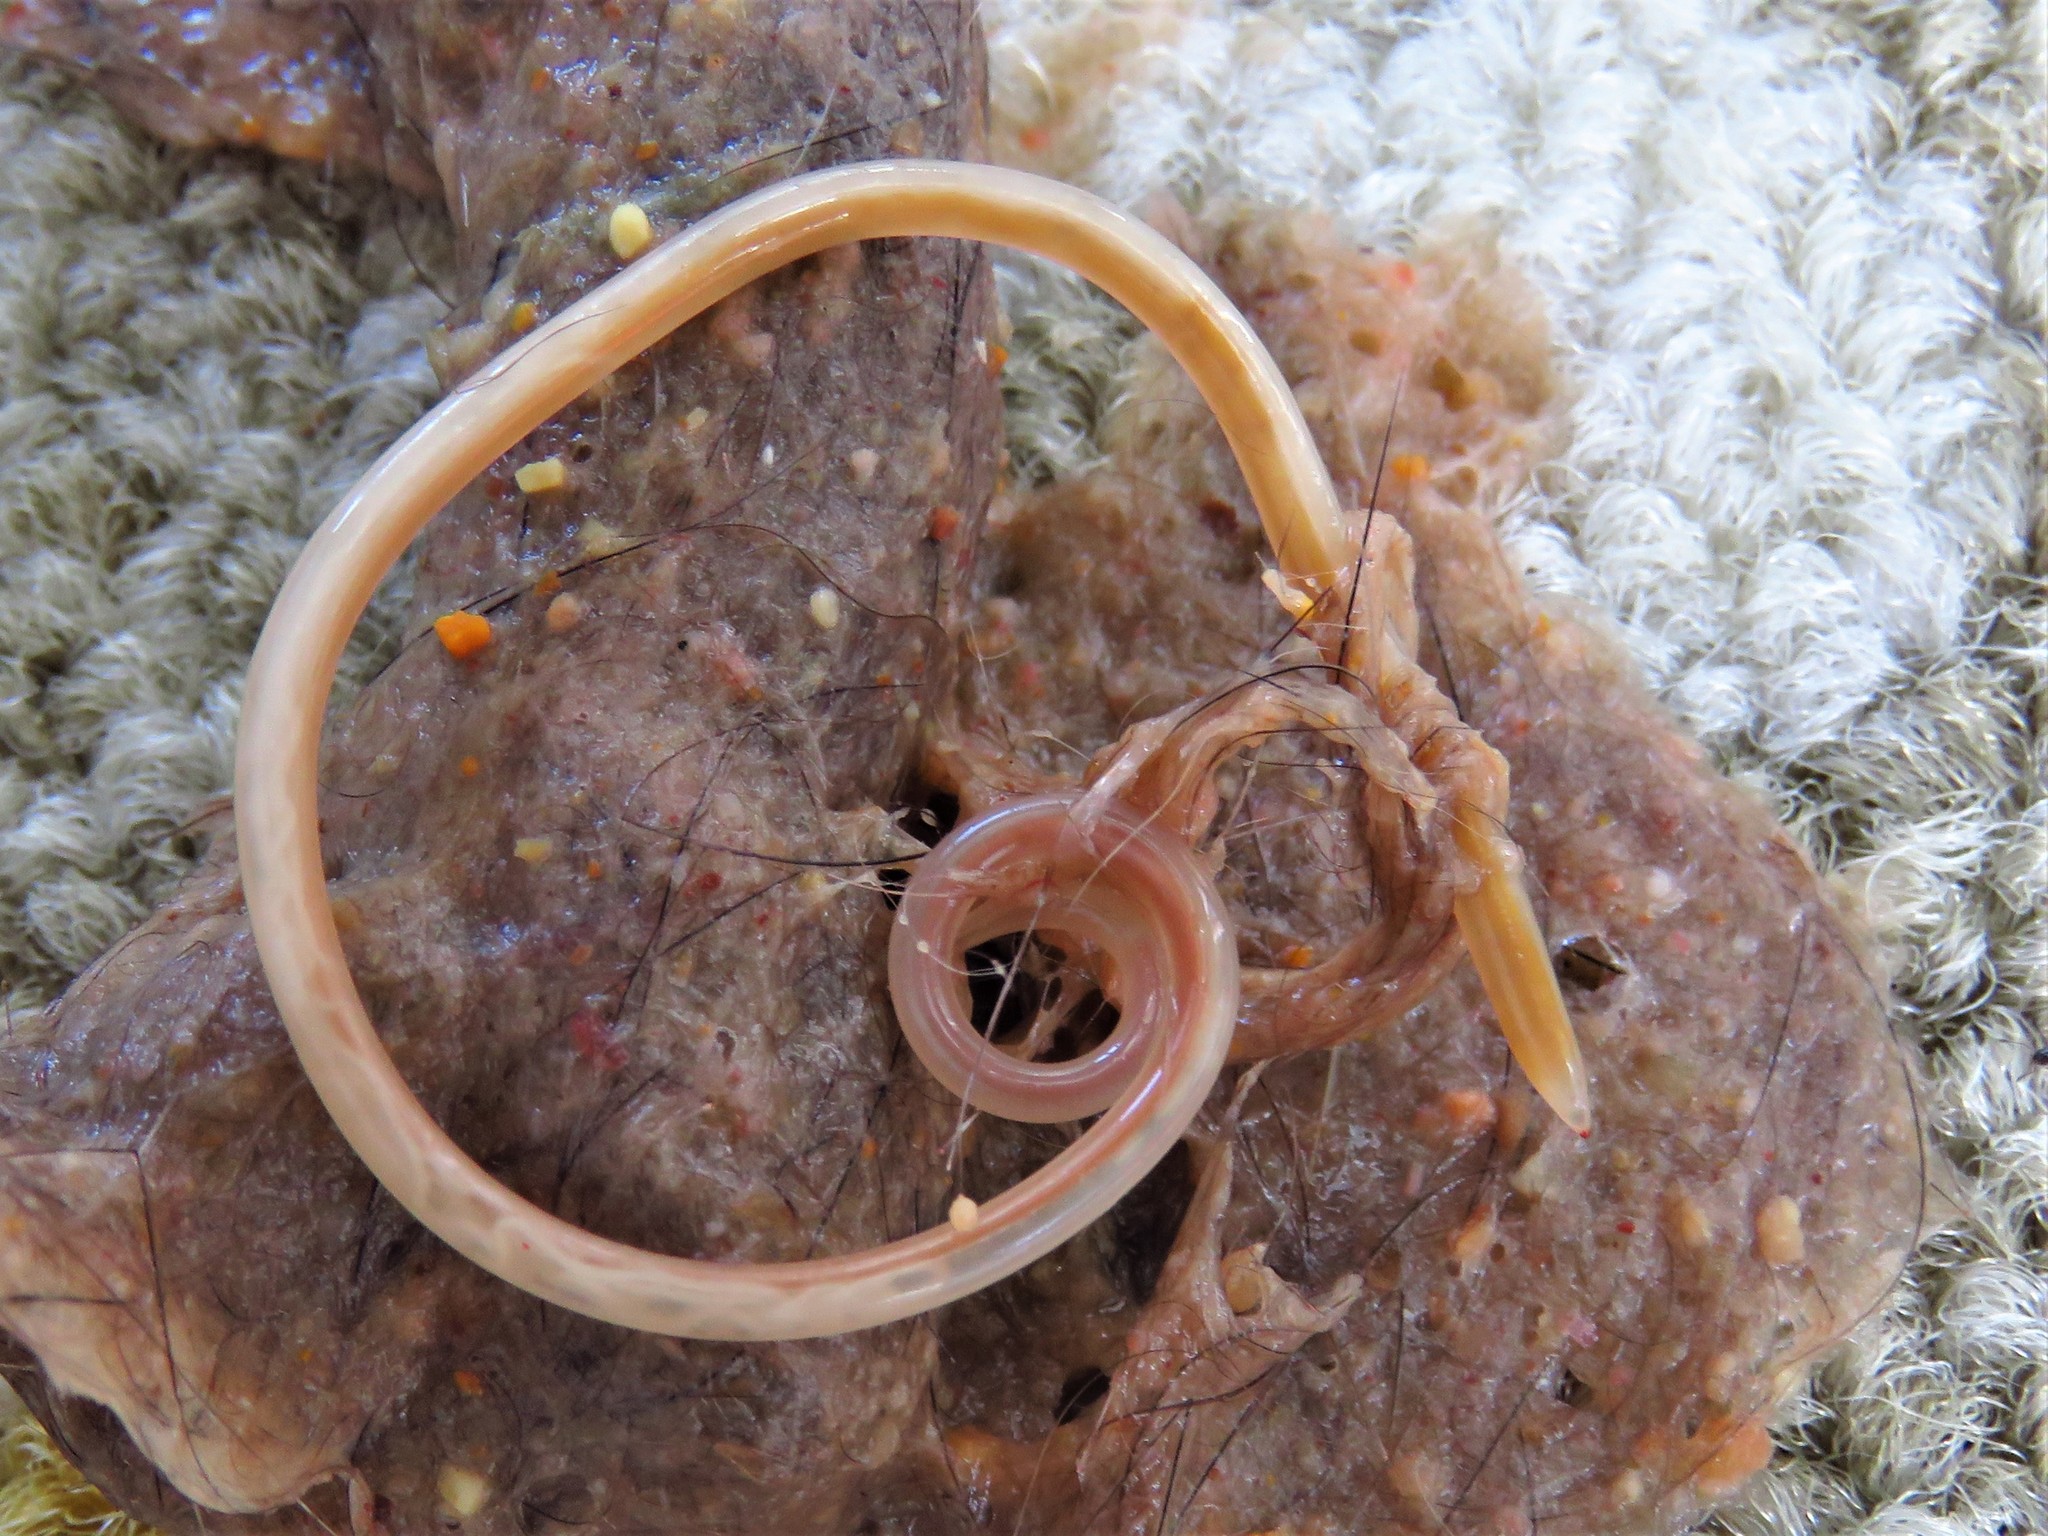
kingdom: Animalia
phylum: Nematoda
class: Chromadorea
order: Rhabditida
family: Ascarididae
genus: Toxocara
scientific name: Toxocara cati
